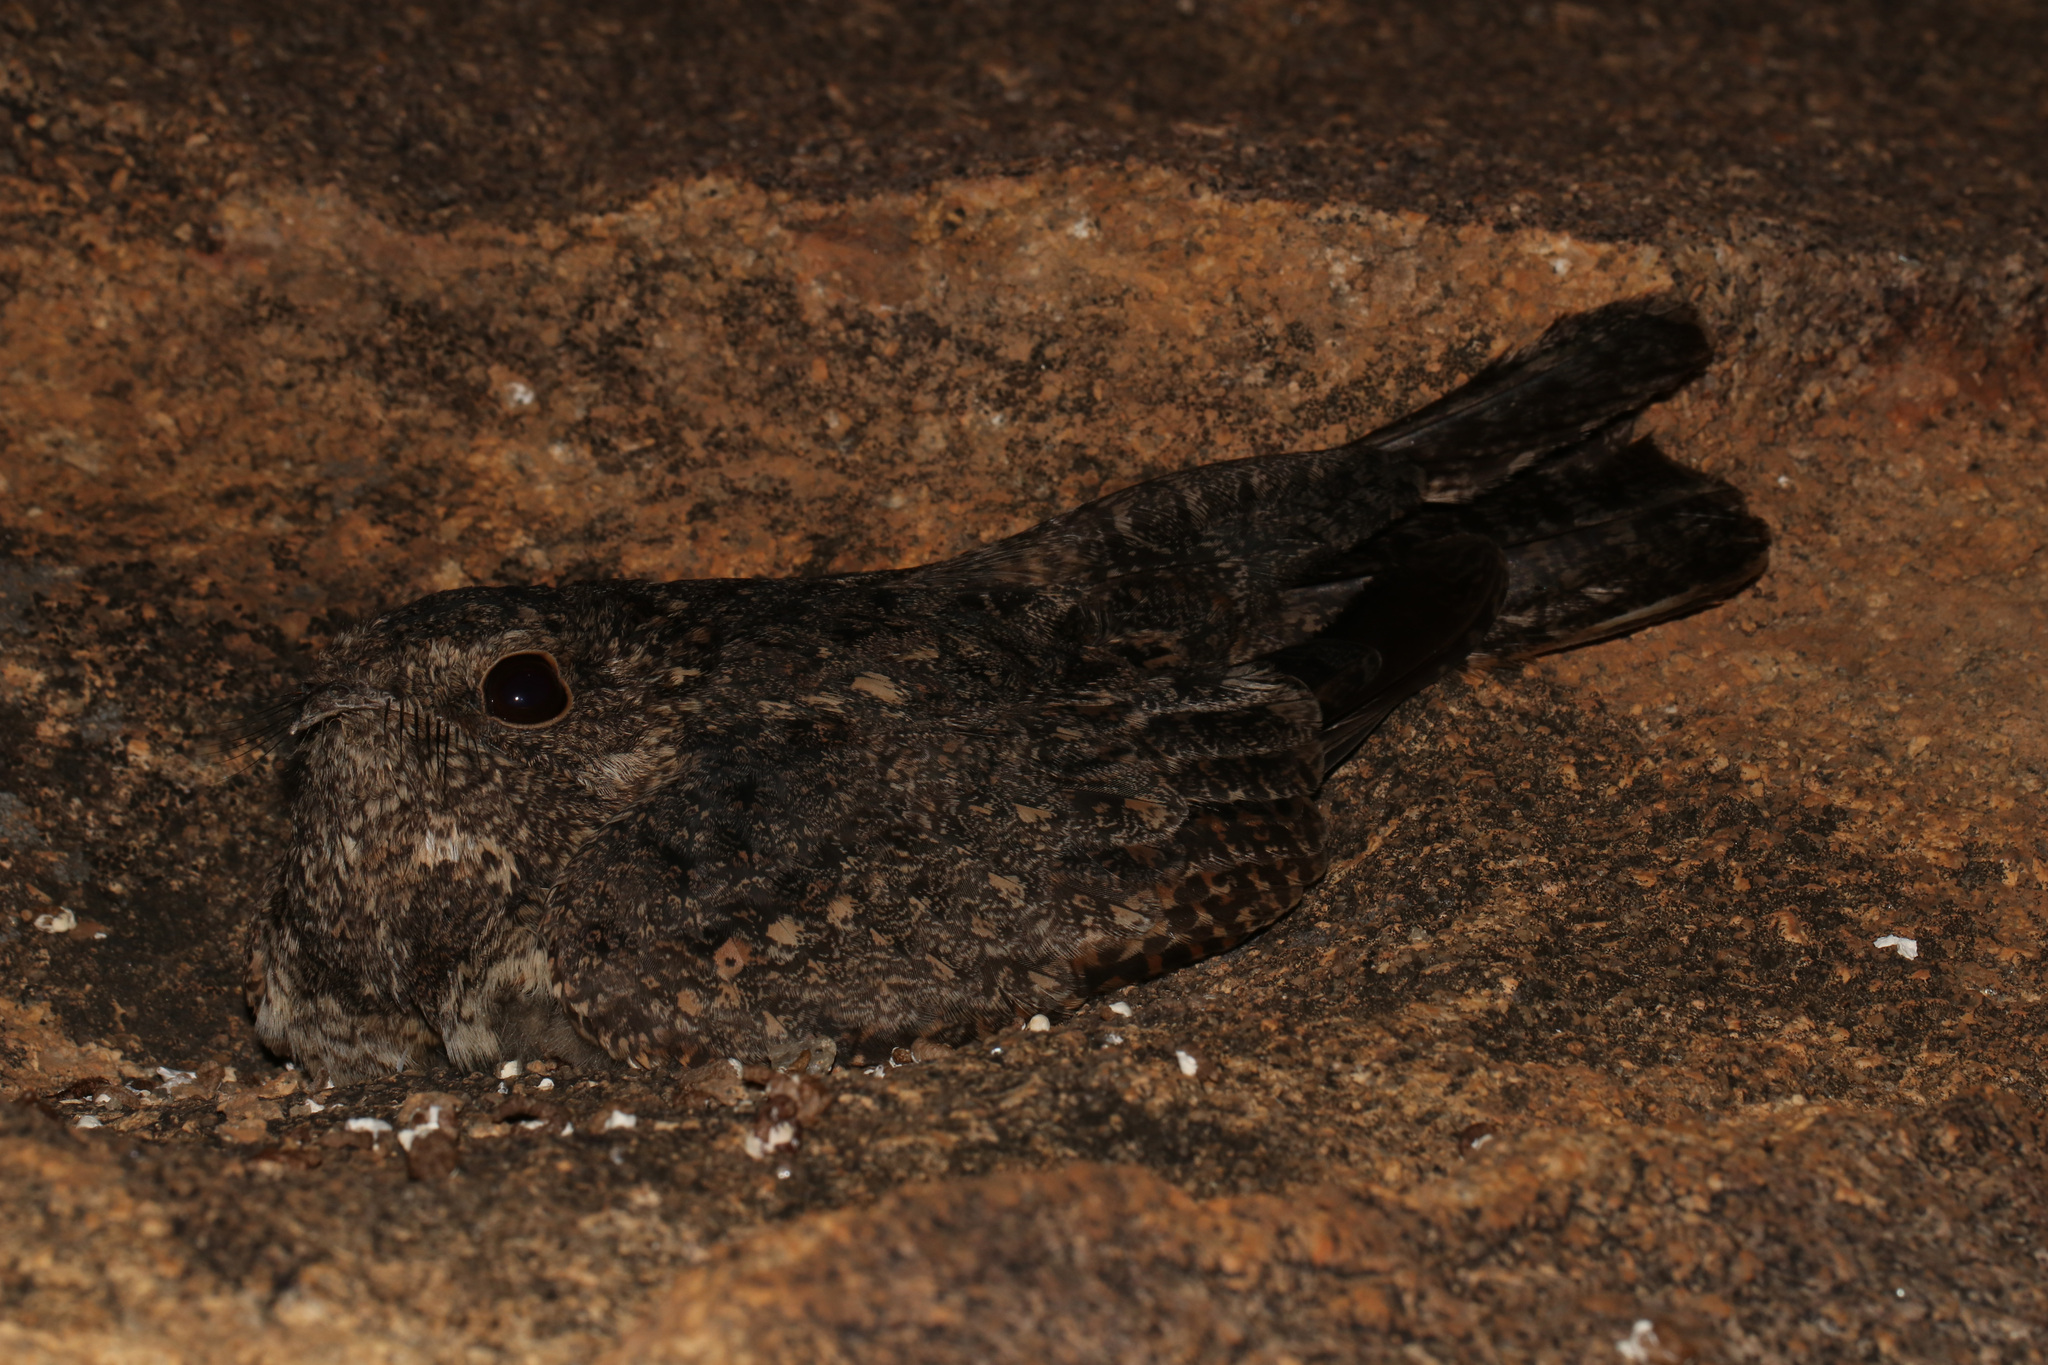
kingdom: Animalia
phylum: Chordata
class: Aves
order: Caprimulgiformes
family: Caprimulgidae
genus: Caprimulgus
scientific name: Caprimulgus tristigma
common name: Freckled nightjar
